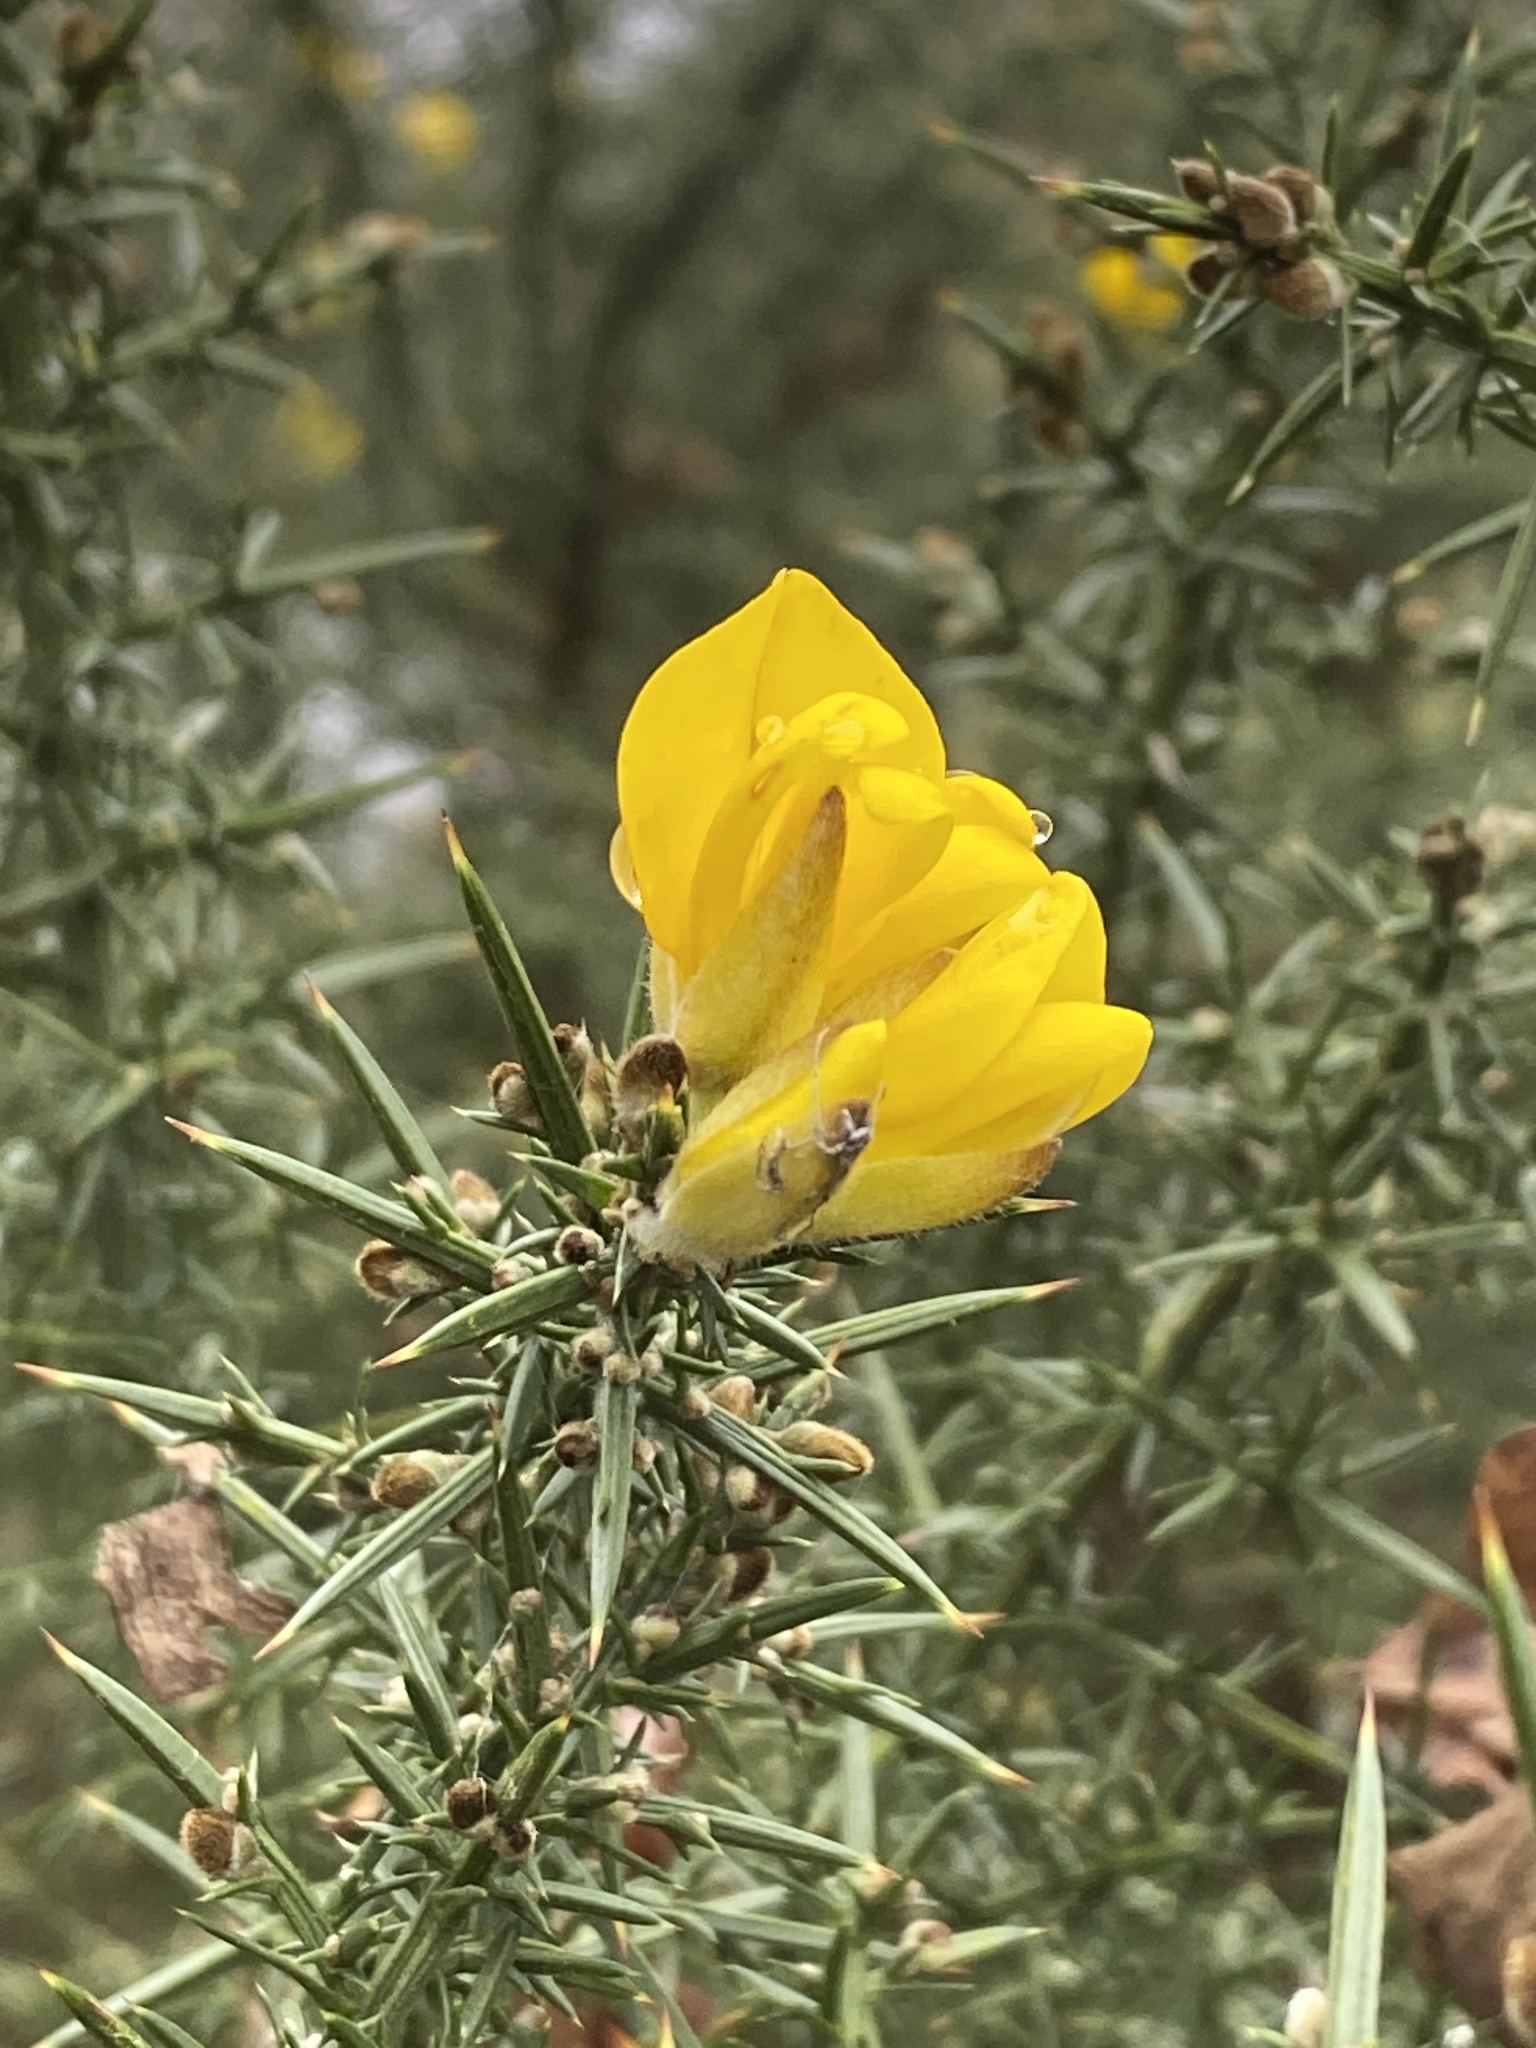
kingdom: Plantae
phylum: Tracheophyta
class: Magnoliopsida
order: Fabales
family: Fabaceae
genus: Ulex
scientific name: Ulex europaeus
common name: Common gorse
